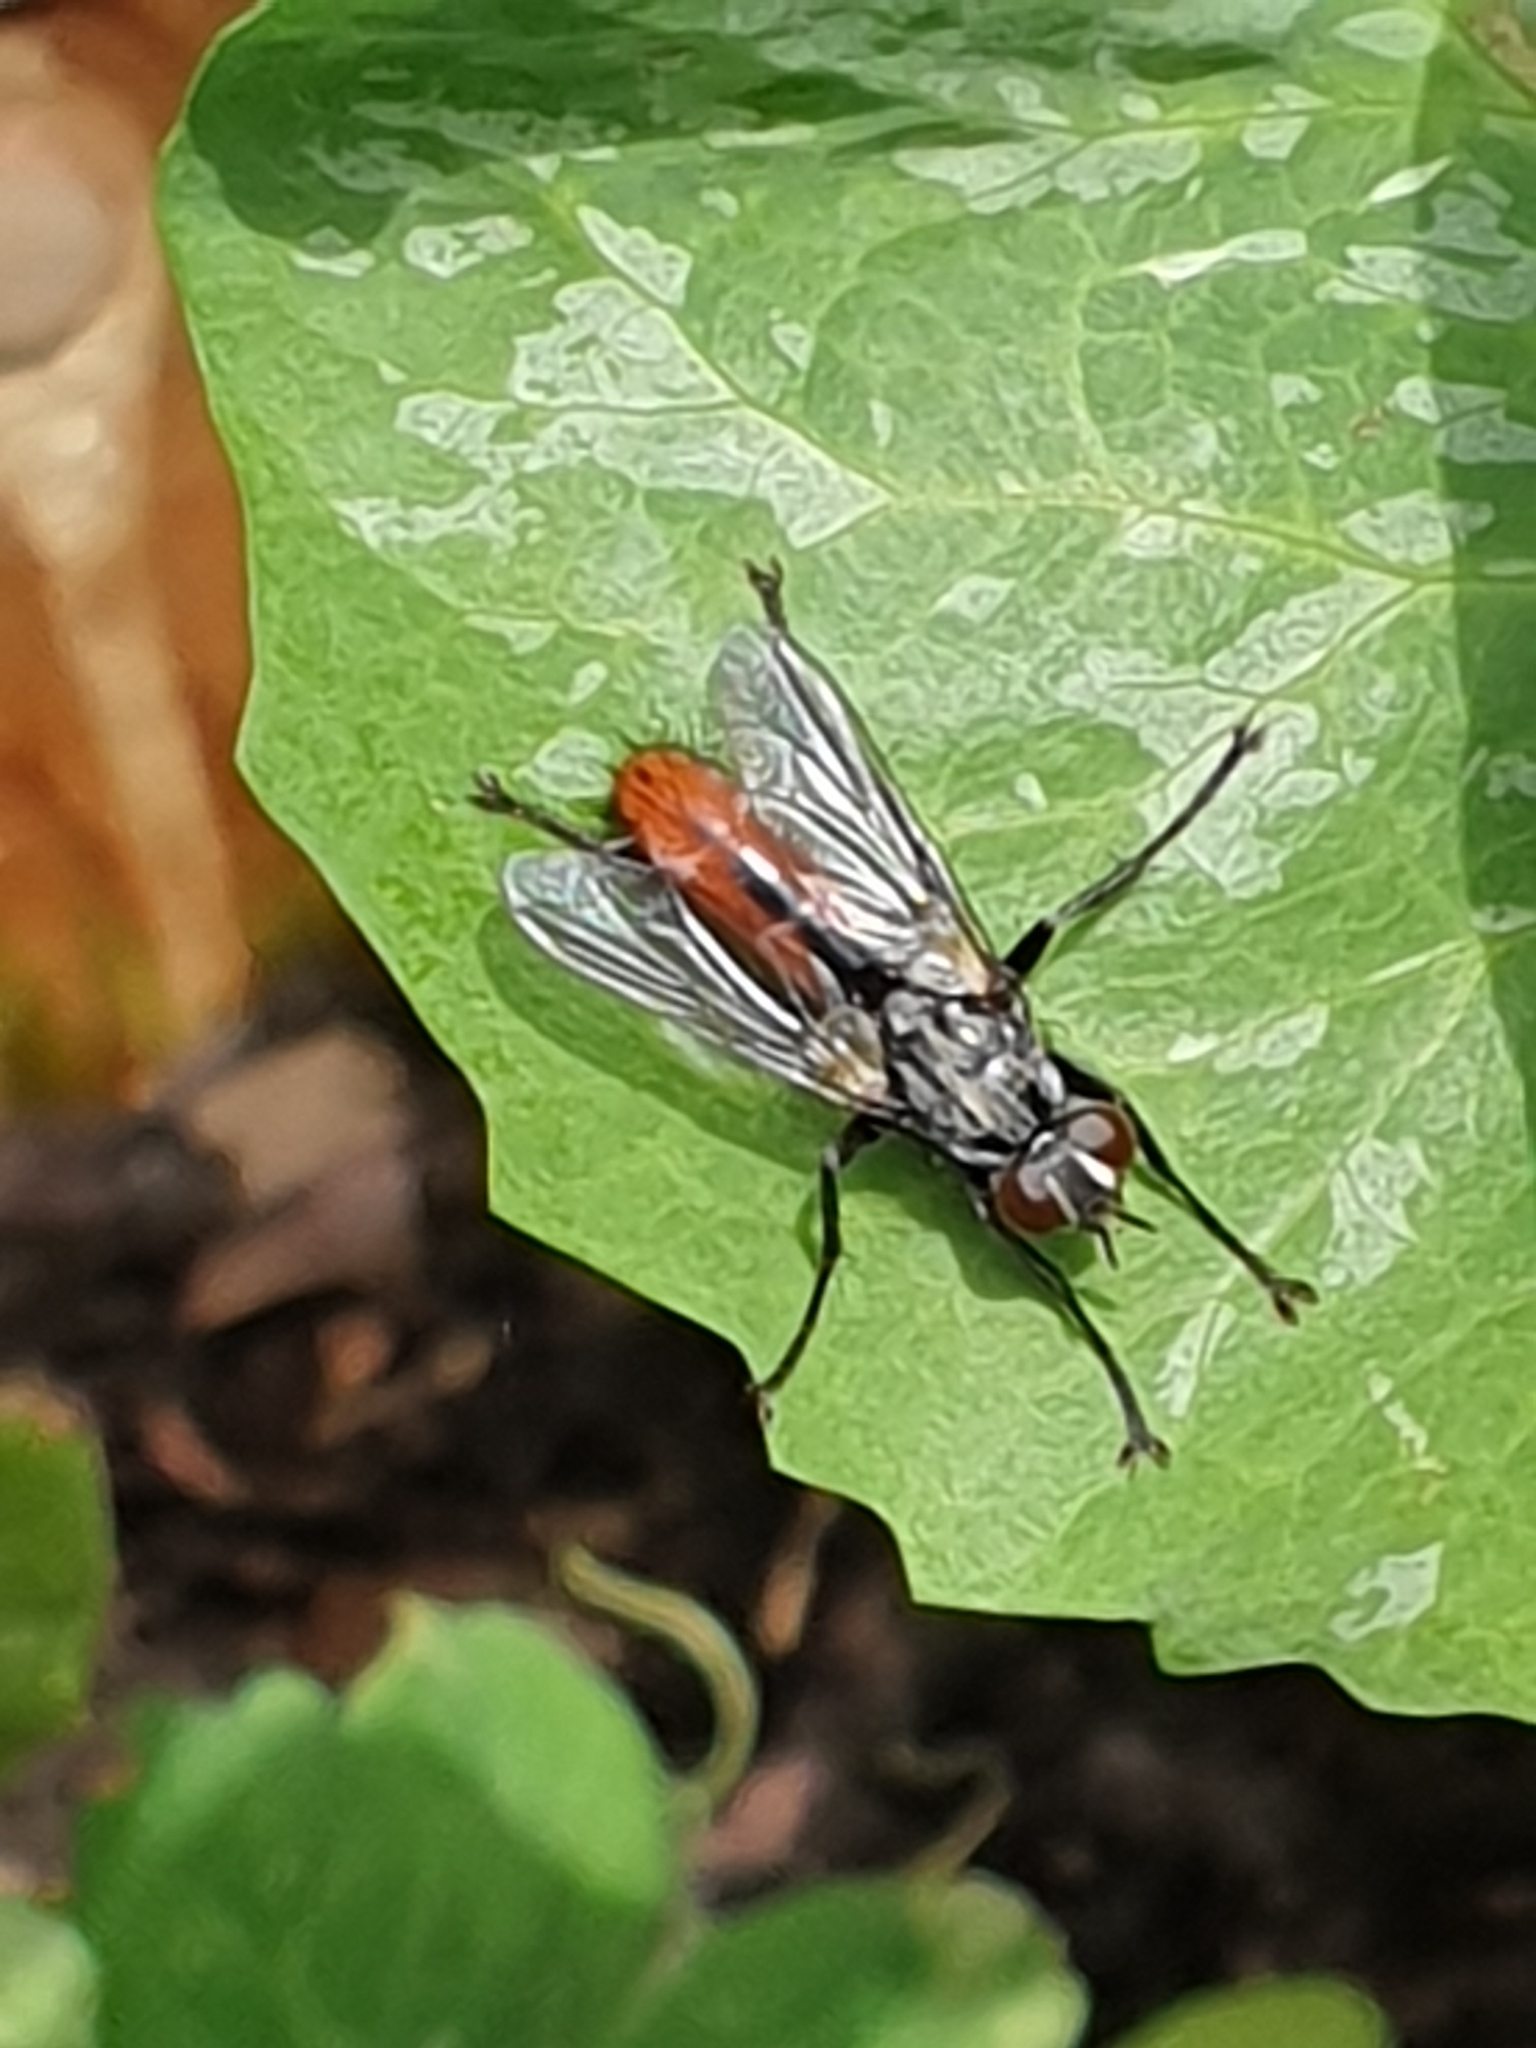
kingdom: Animalia
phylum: Arthropoda
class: Insecta
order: Diptera
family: Tachinidae
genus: Cylindromyia
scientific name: Cylindromyia bicolor
